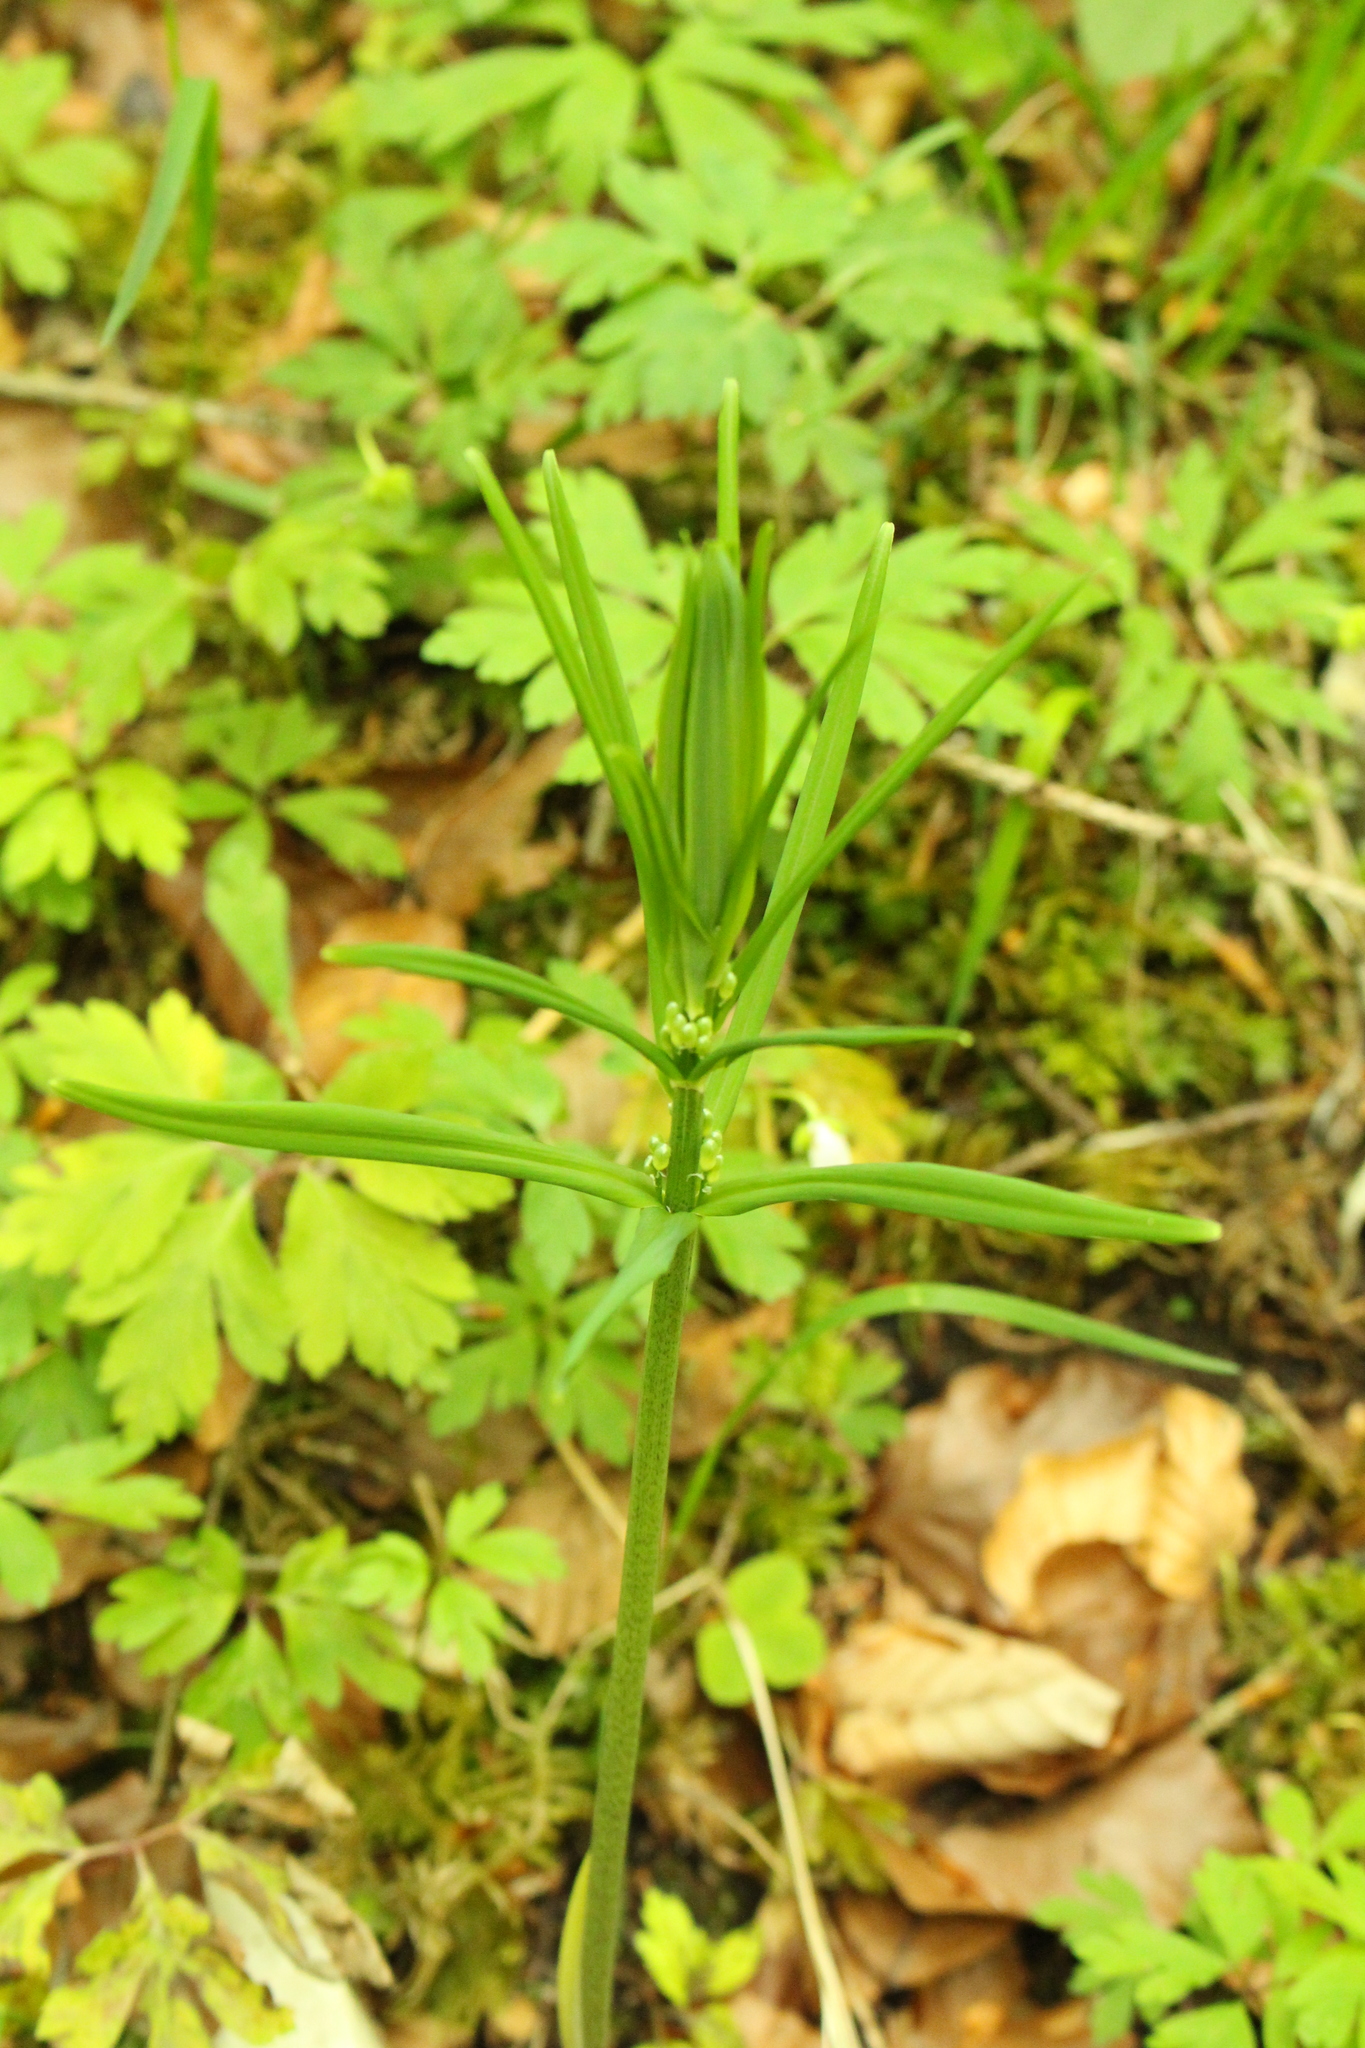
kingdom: Plantae
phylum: Tracheophyta
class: Liliopsida
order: Asparagales
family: Asparagaceae
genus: Polygonatum
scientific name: Polygonatum verticillatum
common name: Whorled solomon's-seal
